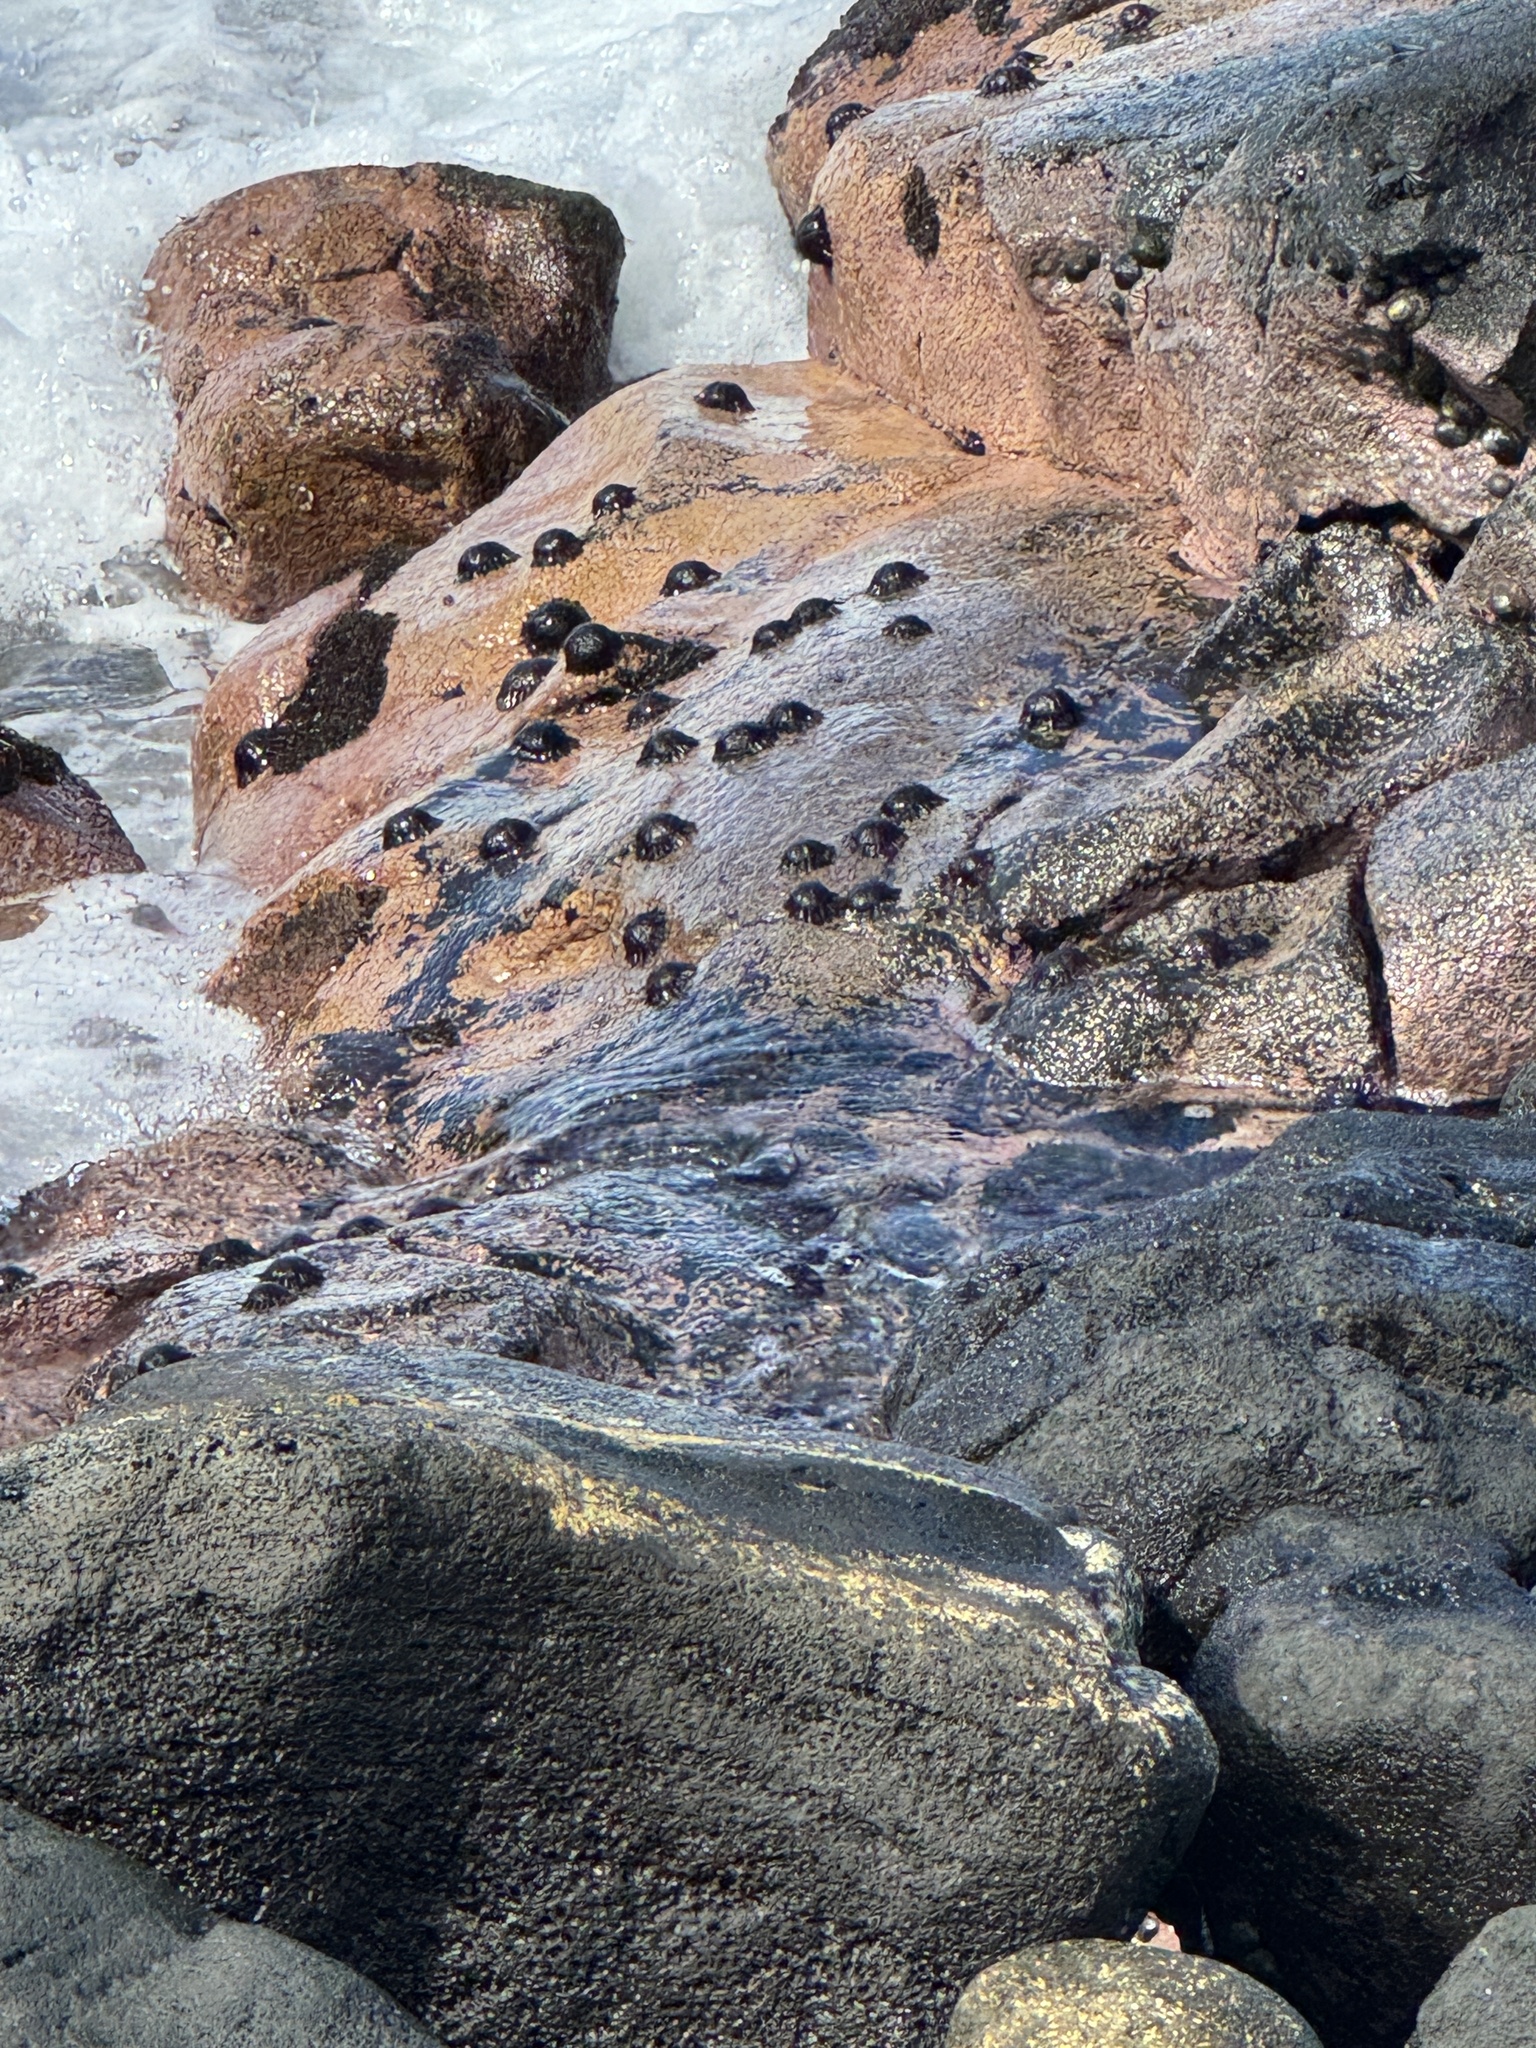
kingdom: Animalia
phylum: Echinodermata
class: Echinoidea
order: Camarodonta
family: Echinometridae
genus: Colobocentrotus
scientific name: Colobocentrotus atratus
